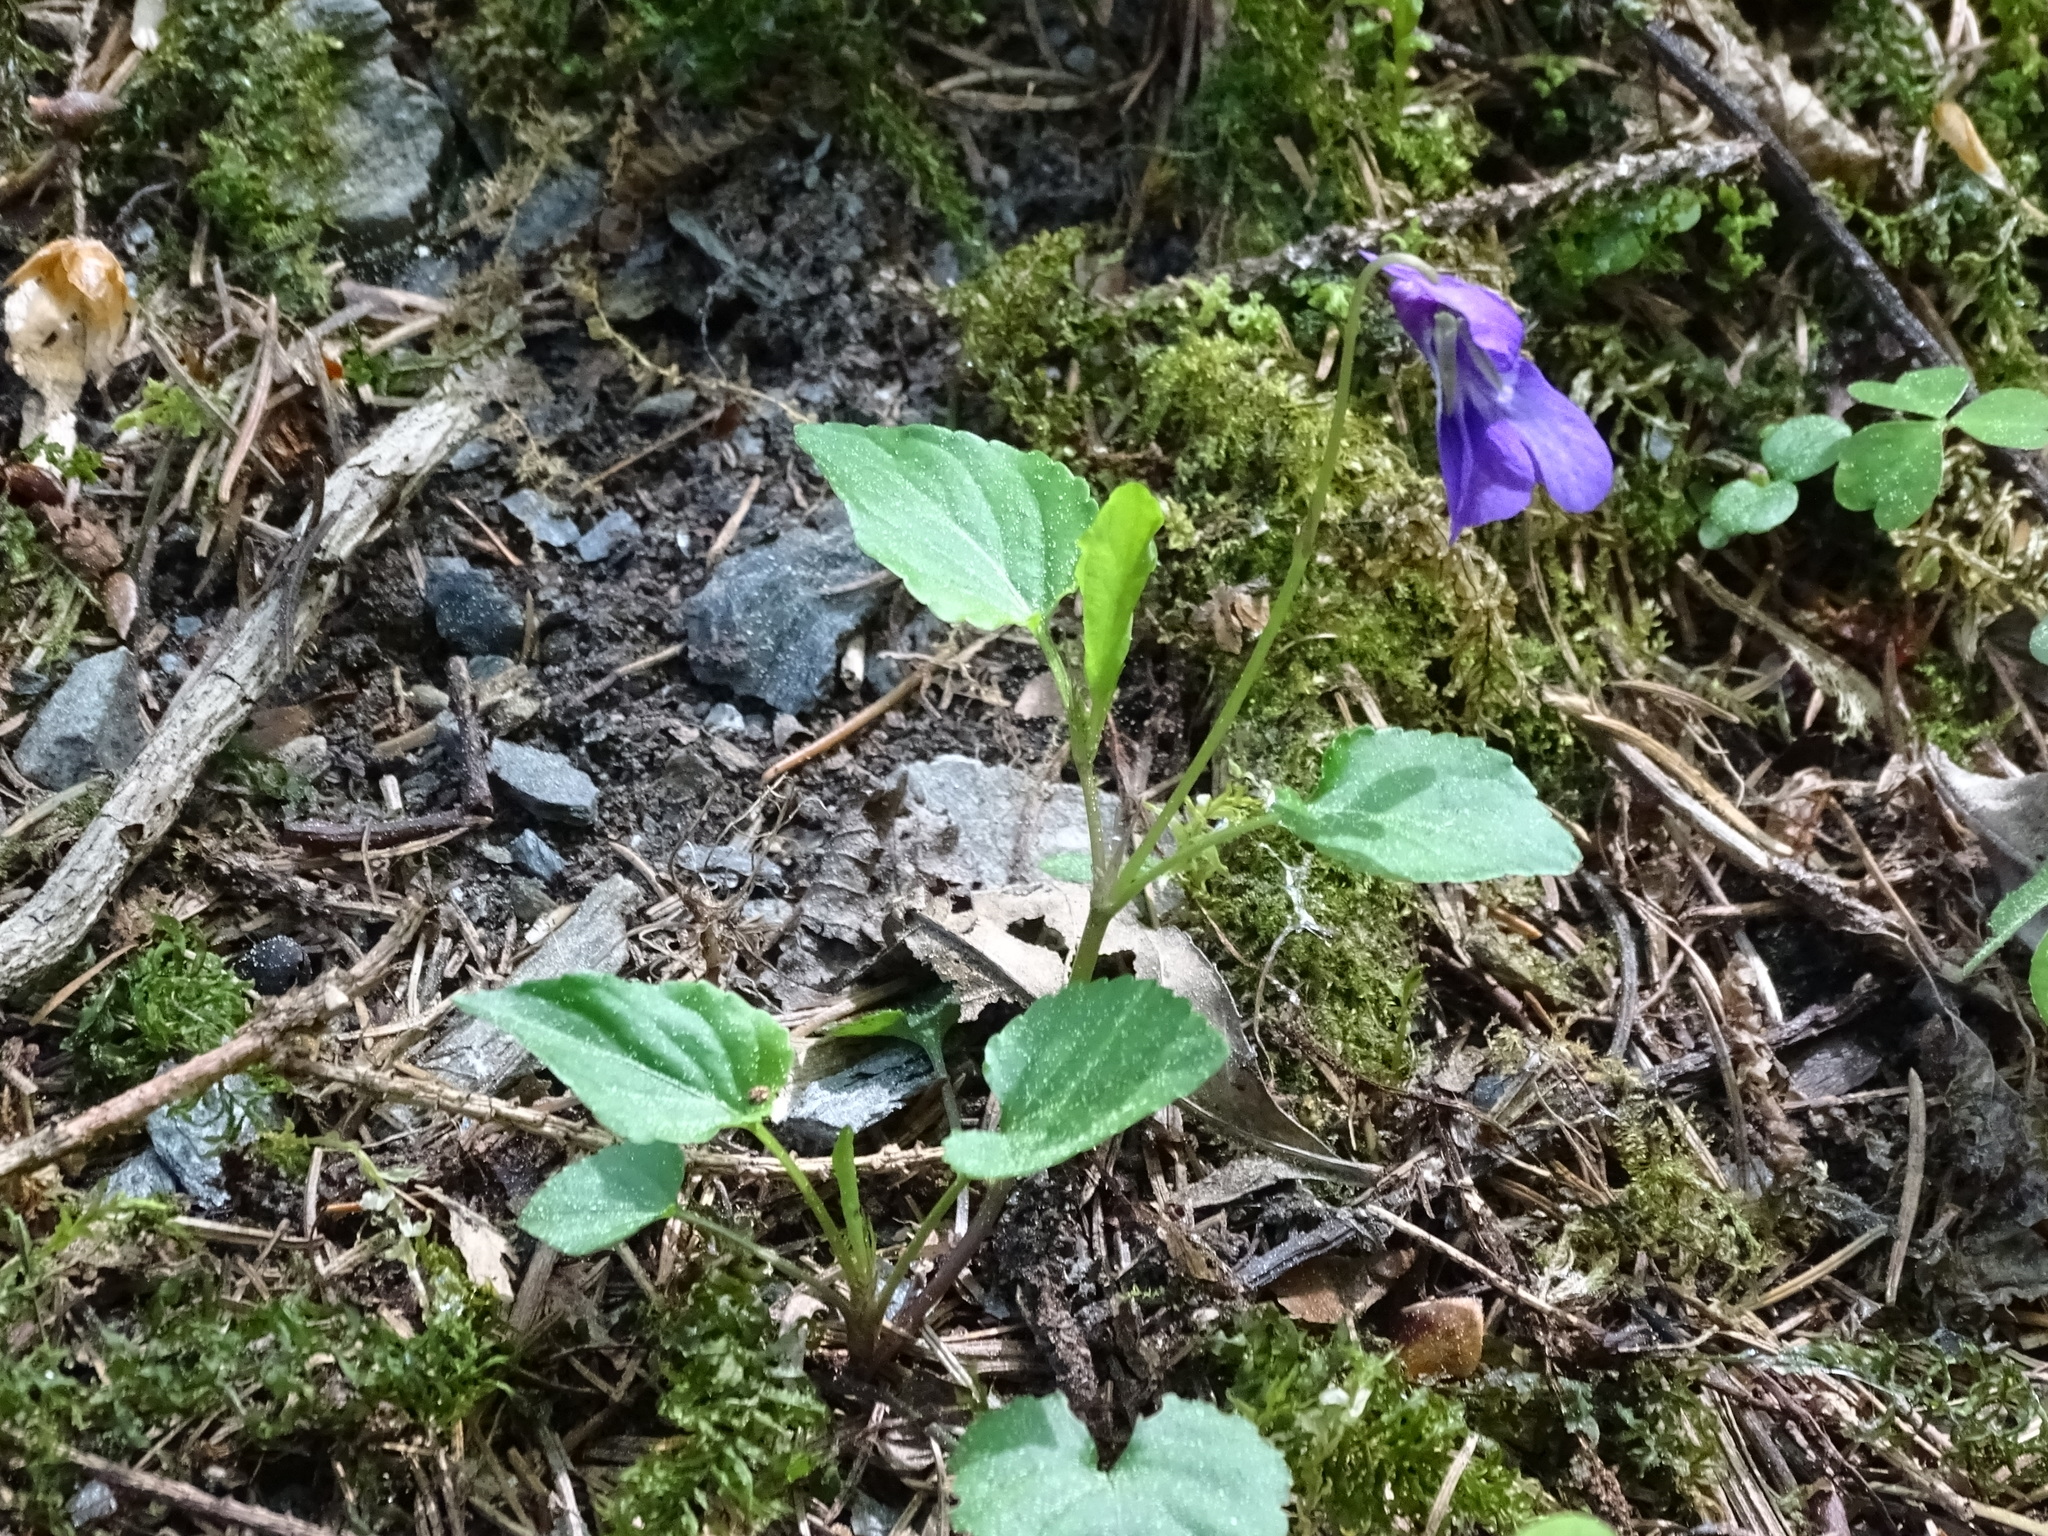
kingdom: Plantae
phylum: Tracheophyta
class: Magnoliopsida
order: Malpighiales
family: Violaceae
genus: Viola
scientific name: Viola reichenbachiana
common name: Early dog-violet
